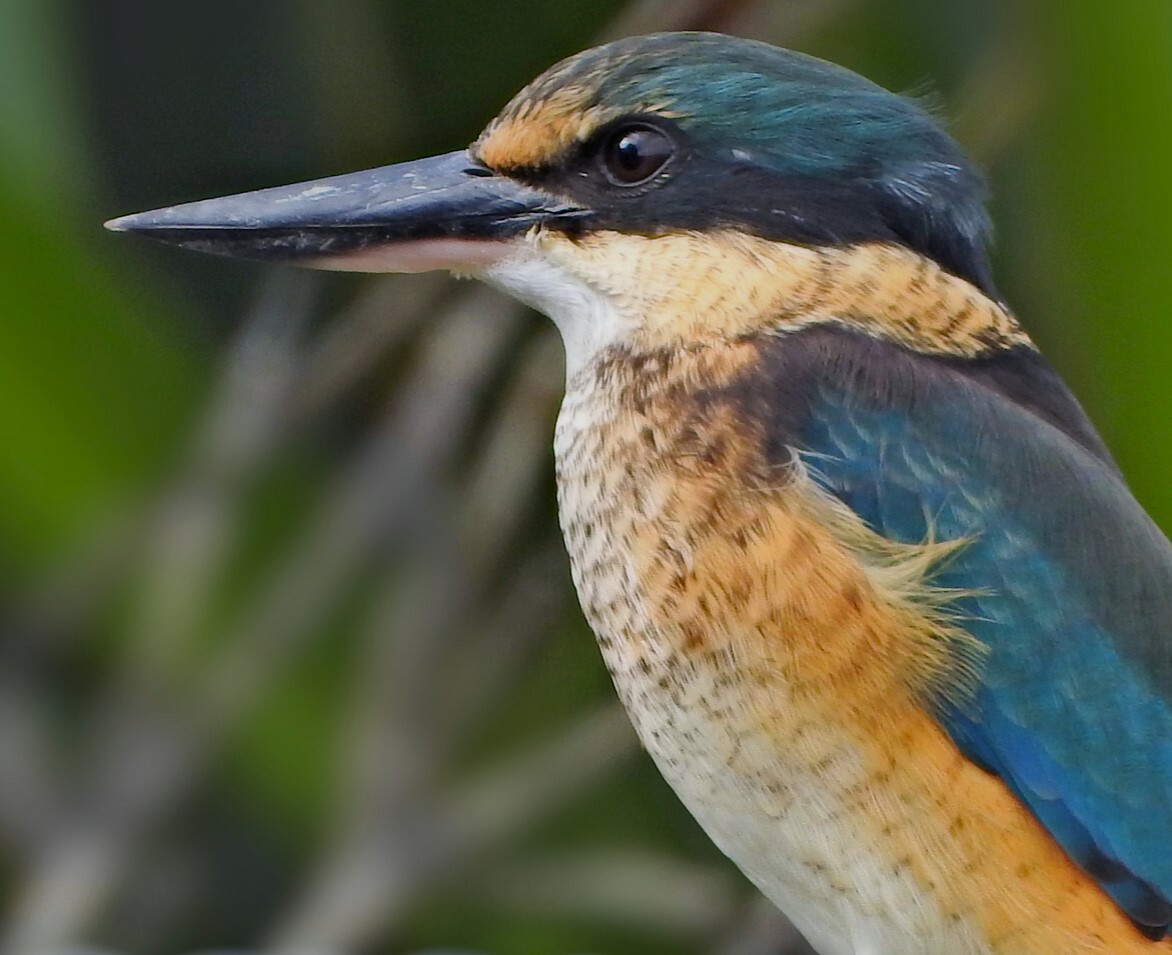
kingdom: Animalia
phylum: Chordata
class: Aves
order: Coraciiformes
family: Alcedinidae
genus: Todiramphus
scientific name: Todiramphus sanctus
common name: Sacred kingfisher
